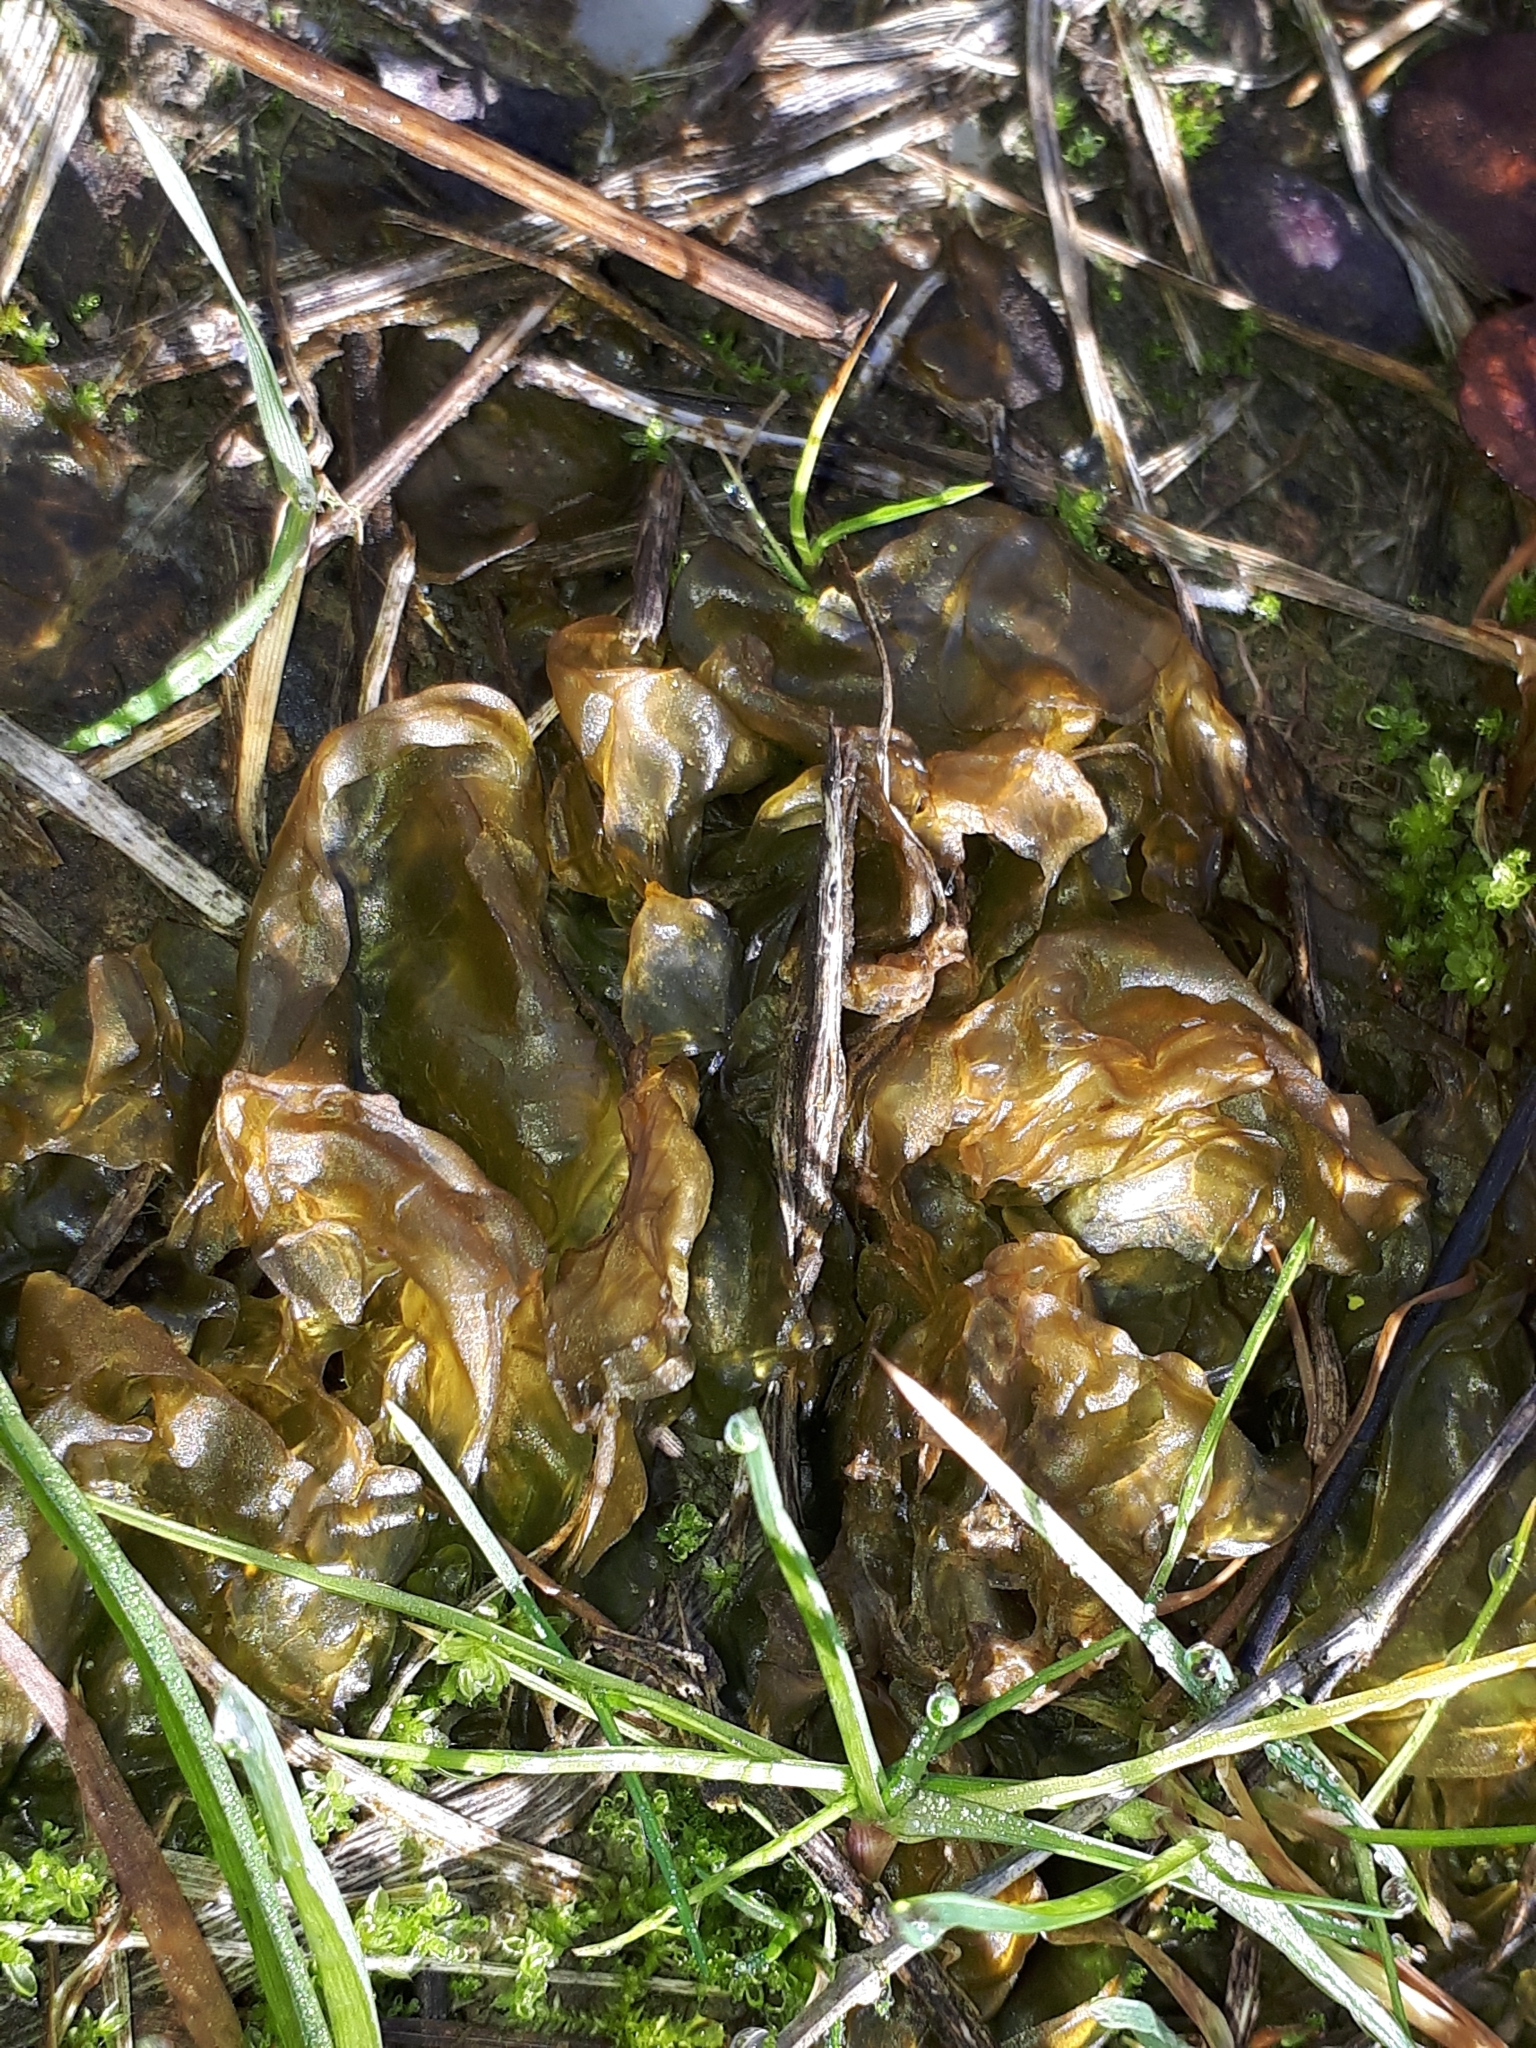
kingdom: Bacteria
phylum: Cyanobacteria
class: Cyanobacteriia
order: Cyanobacteriales
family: Nostocaceae
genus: Nostoc
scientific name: Nostoc commune
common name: Star jelly
